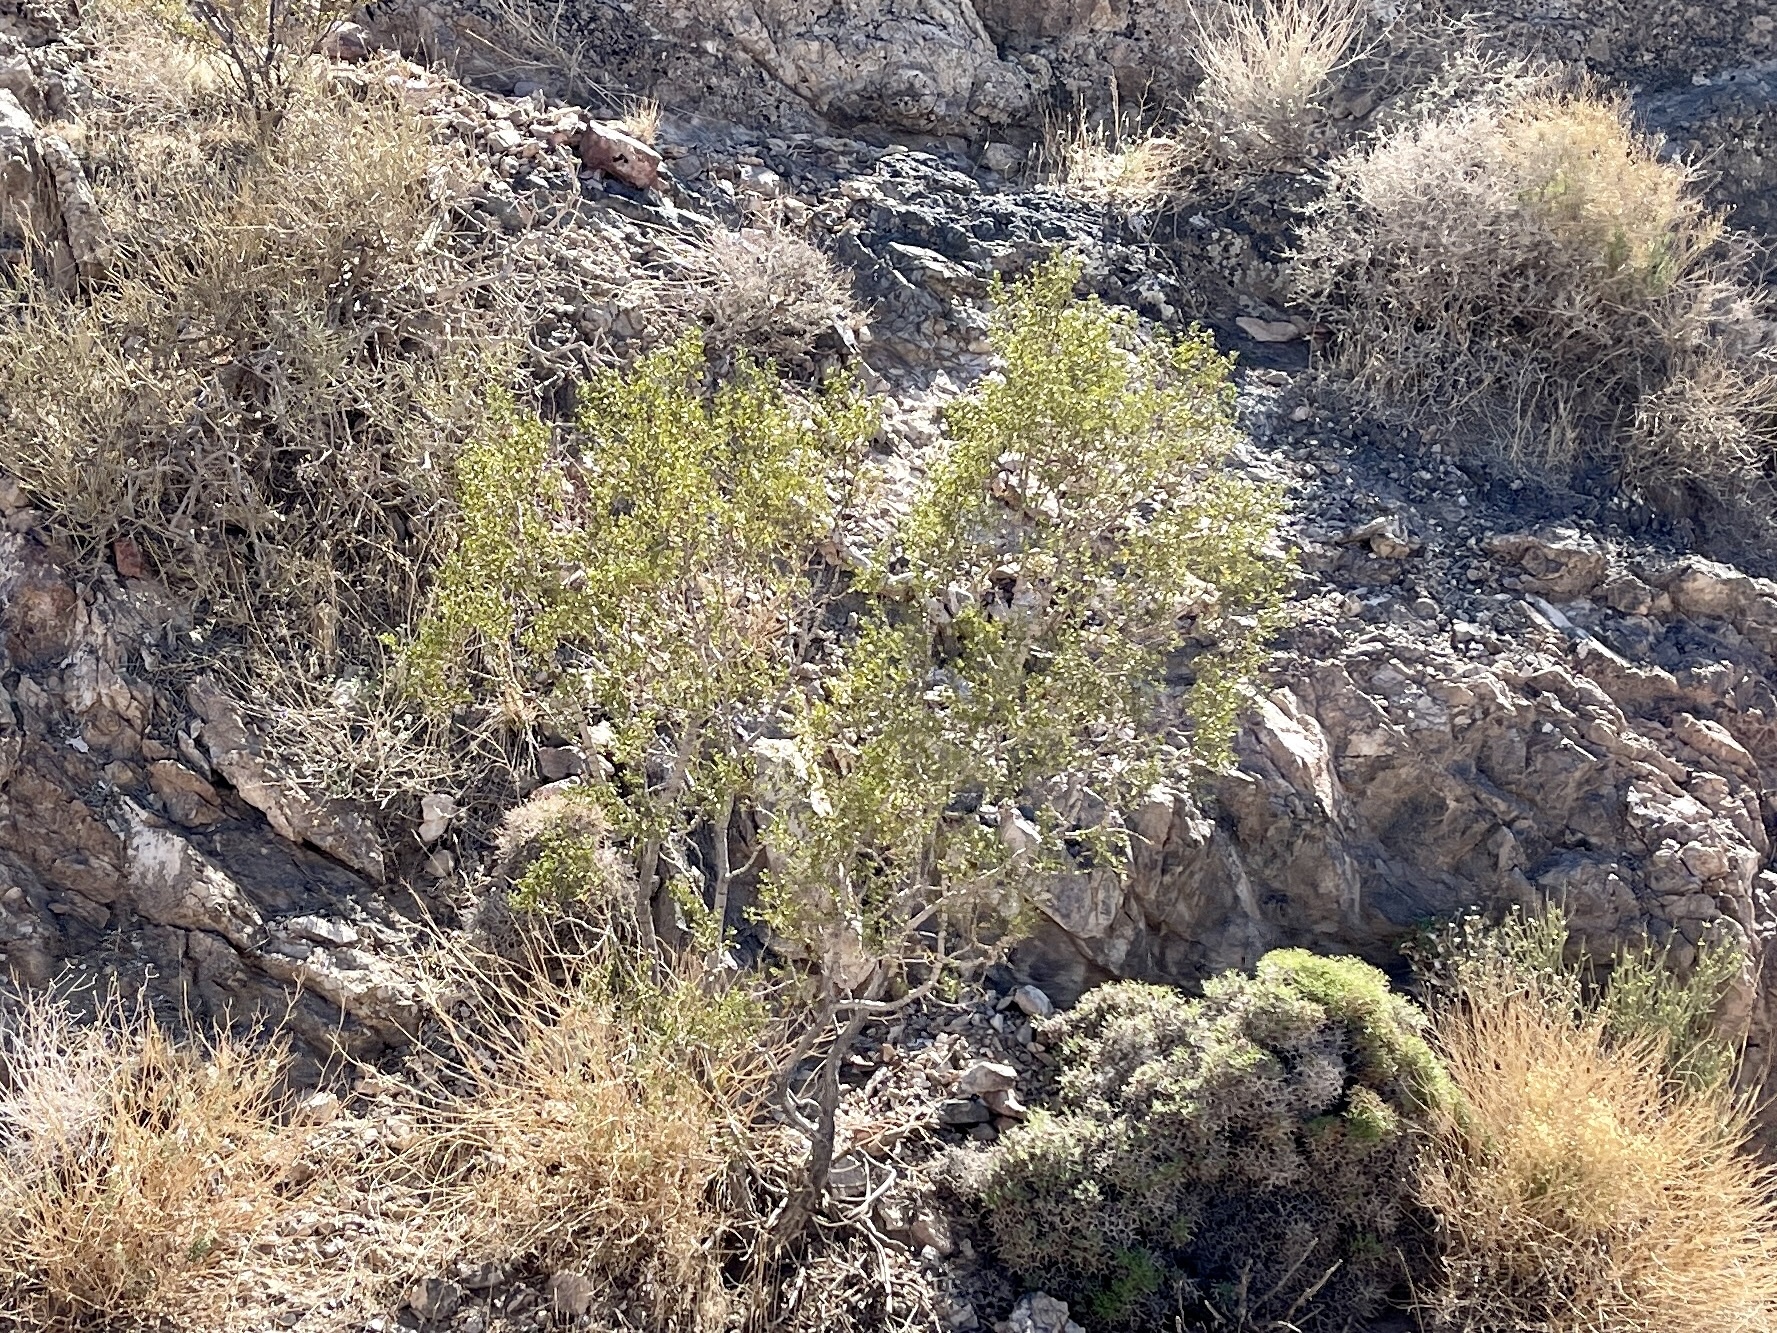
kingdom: Plantae
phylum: Tracheophyta
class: Magnoliopsida
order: Zygophyllales
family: Zygophyllaceae
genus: Larrea
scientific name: Larrea tridentata
